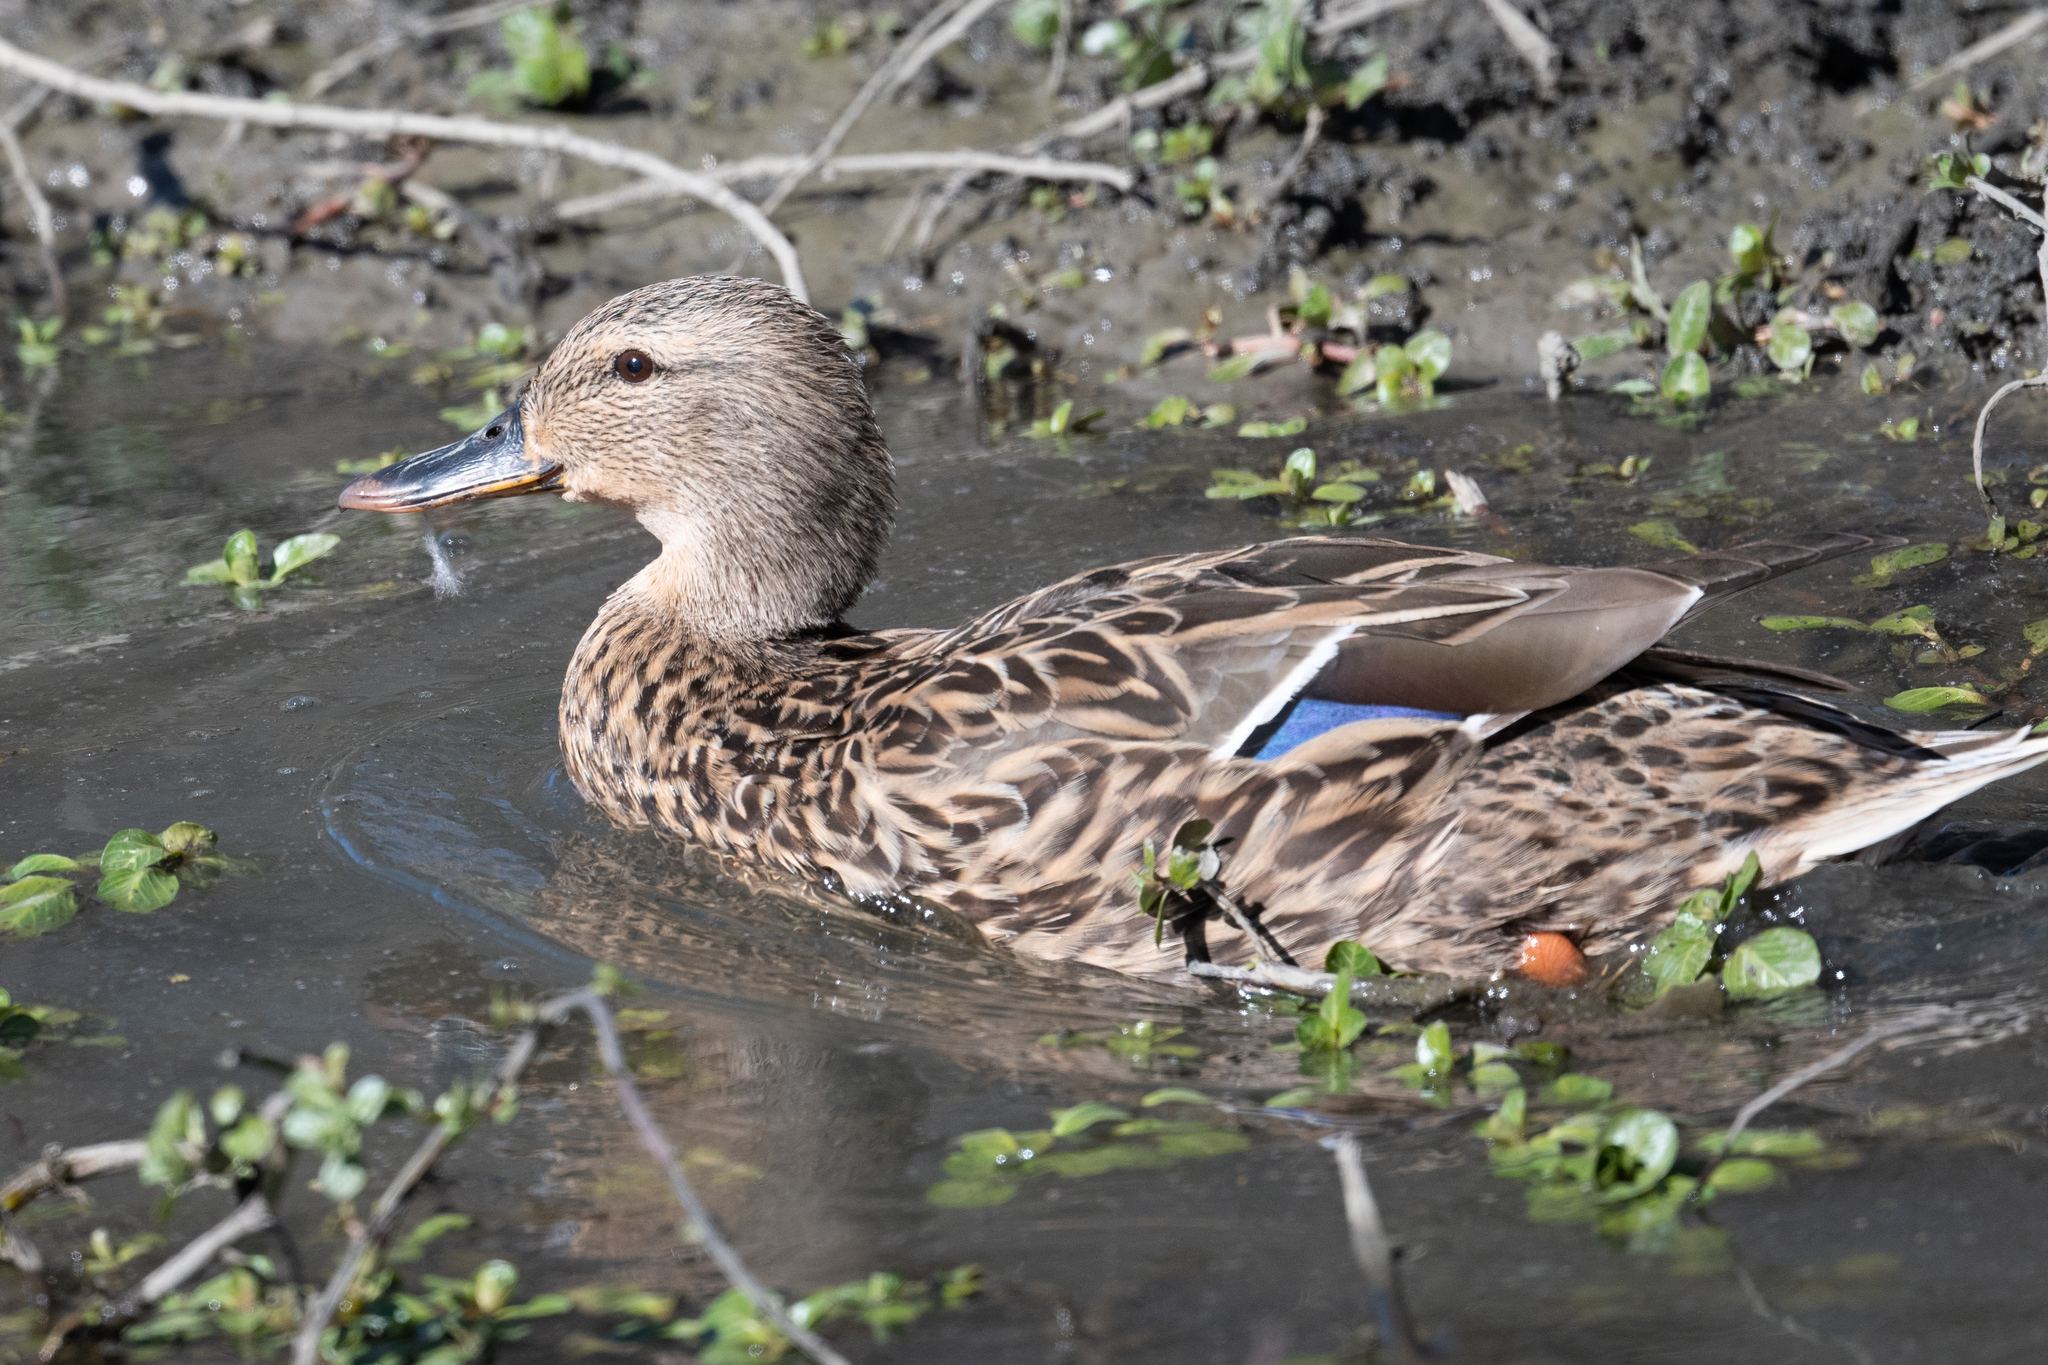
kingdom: Animalia
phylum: Chordata
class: Aves
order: Anseriformes
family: Anatidae
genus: Anas
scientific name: Anas platyrhynchos
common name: Mallard
